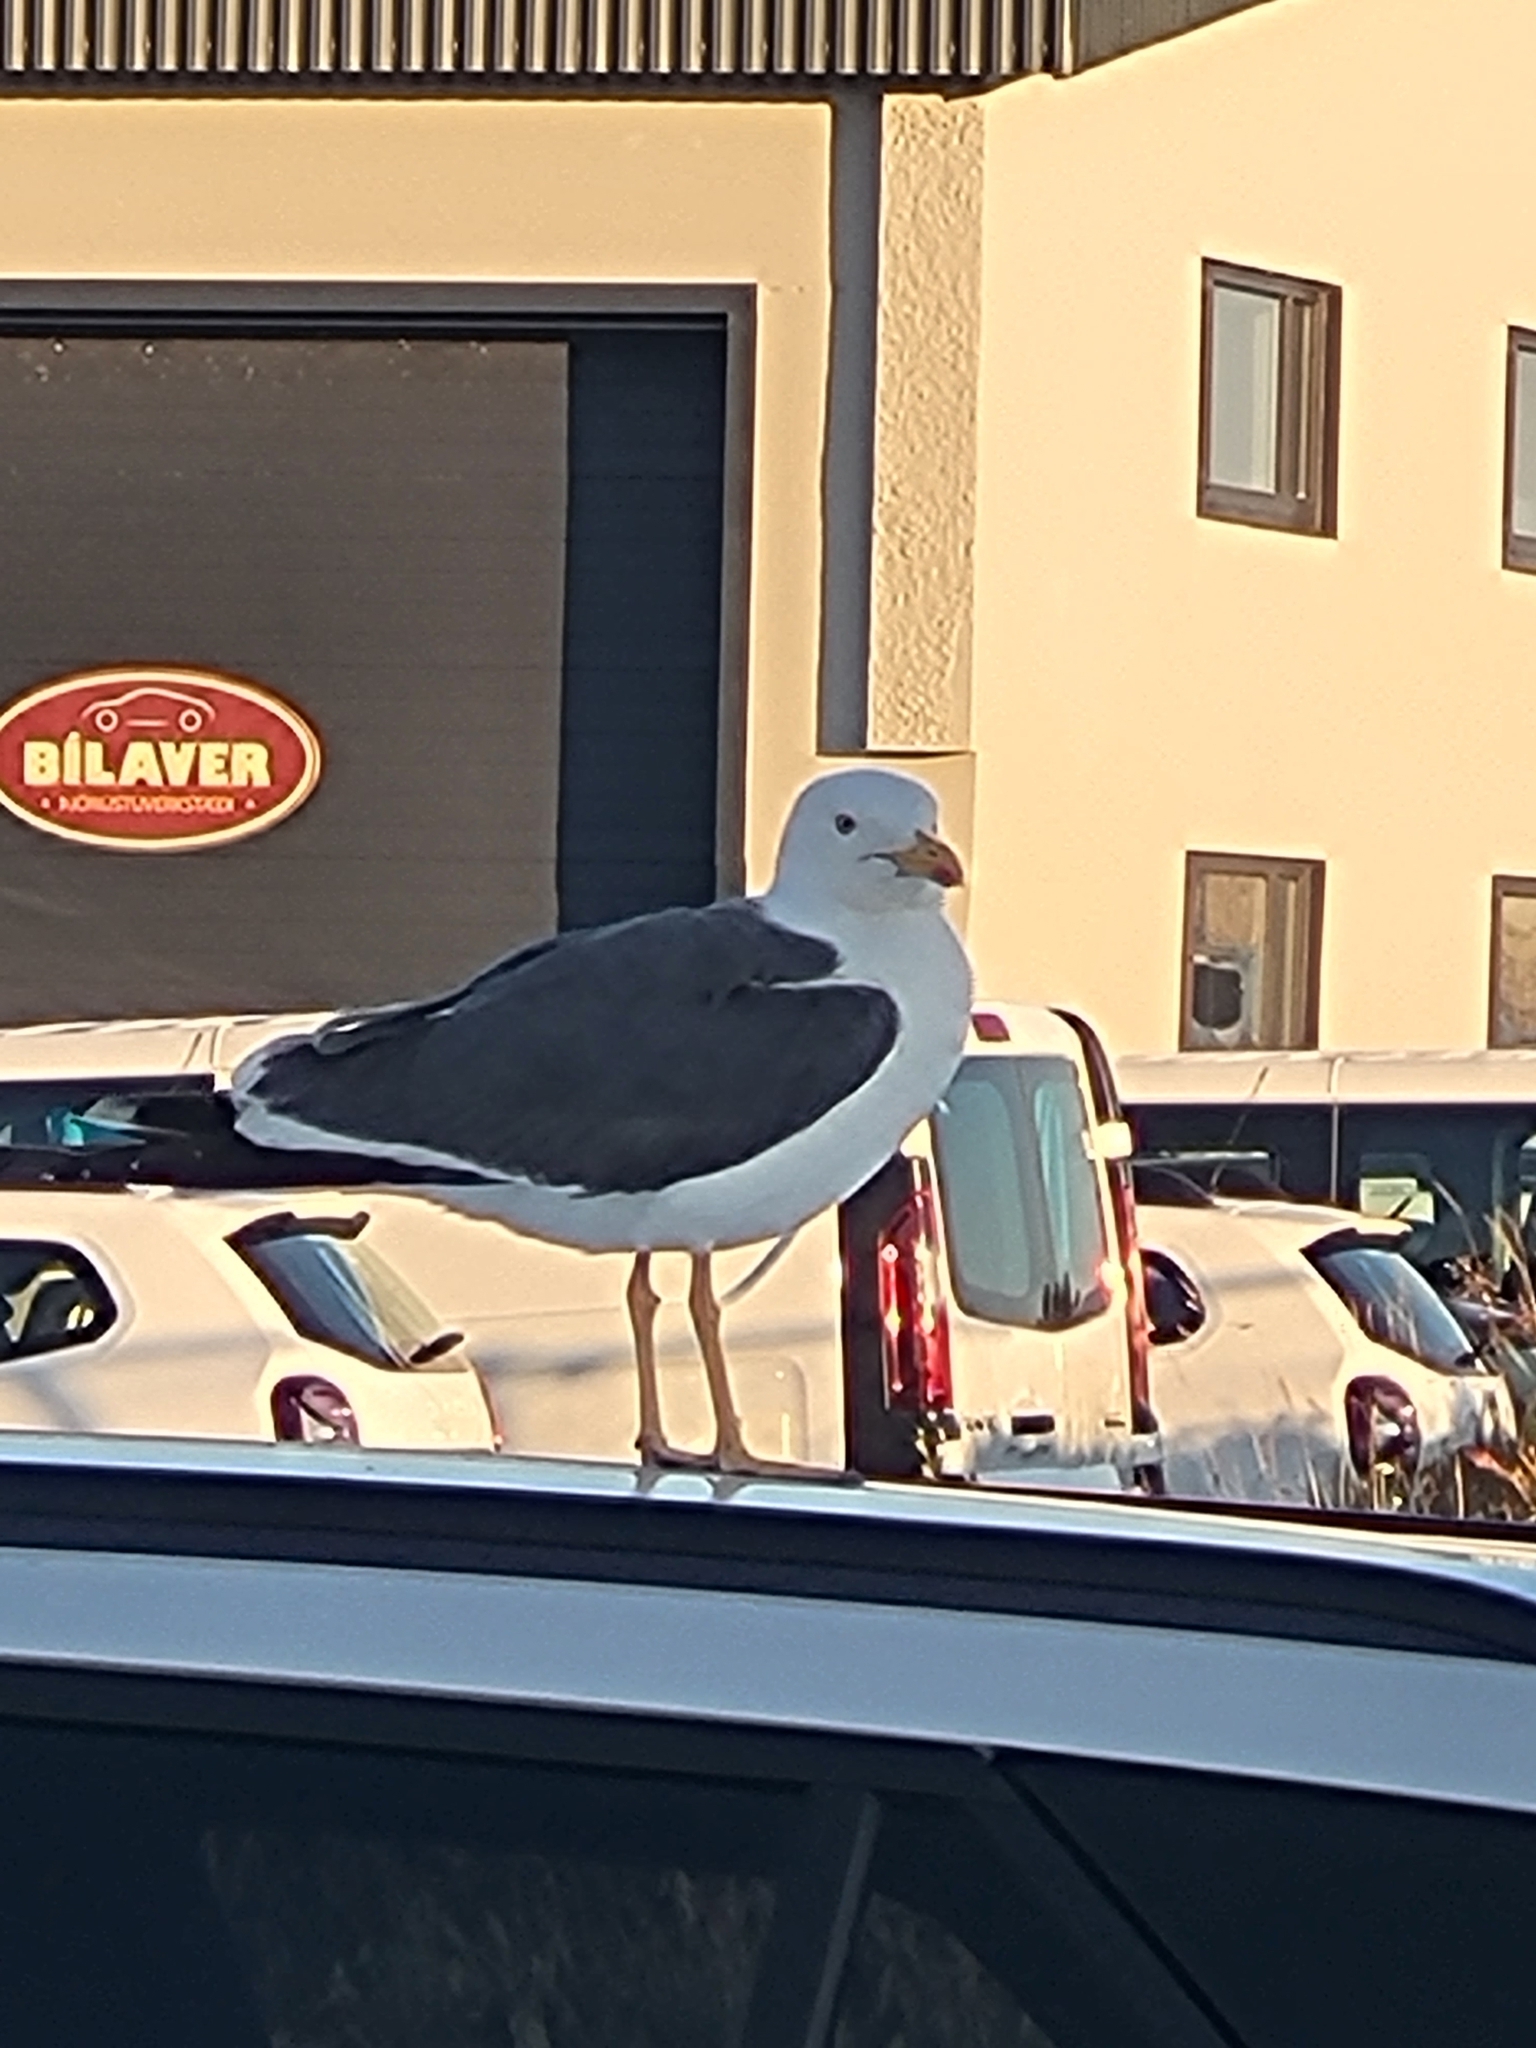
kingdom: Animalia
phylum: Chordata
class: Aves
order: Charadriiformes
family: Laridae
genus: Larus
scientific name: Larus fuscus
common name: Lesser black-backed gull
